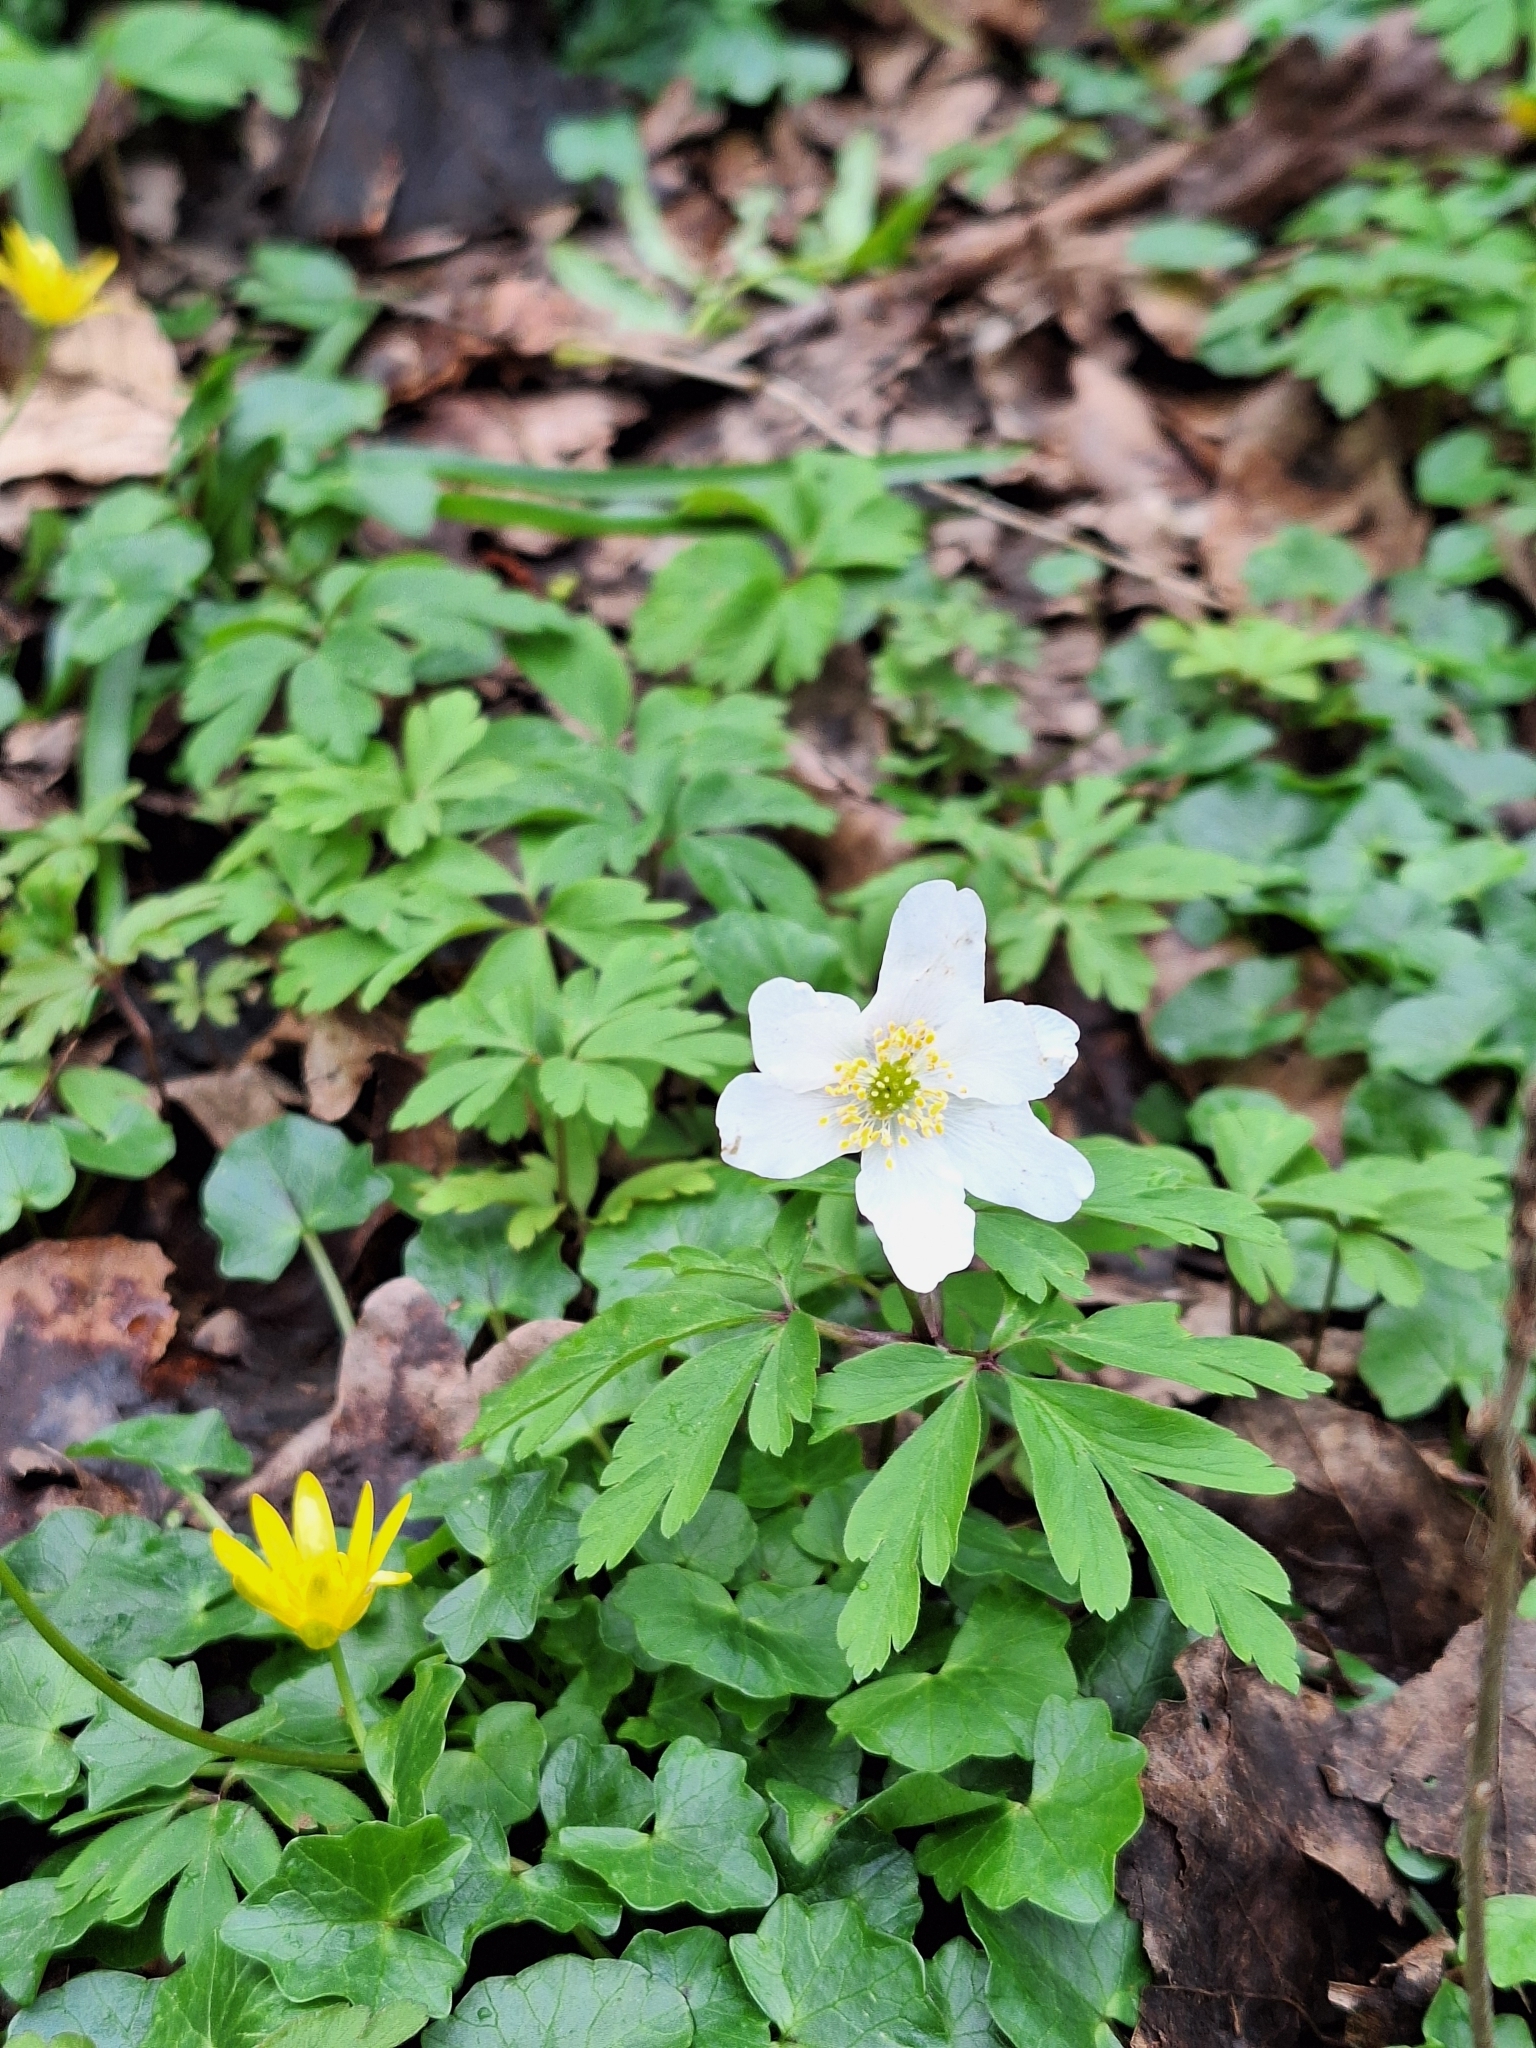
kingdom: Plantae
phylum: Tracheophyta
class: Magnoliopsida
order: Ranunculales
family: Ranunculaceae
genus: Anemone
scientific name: Anemone nemorosa
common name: Wood anemone
